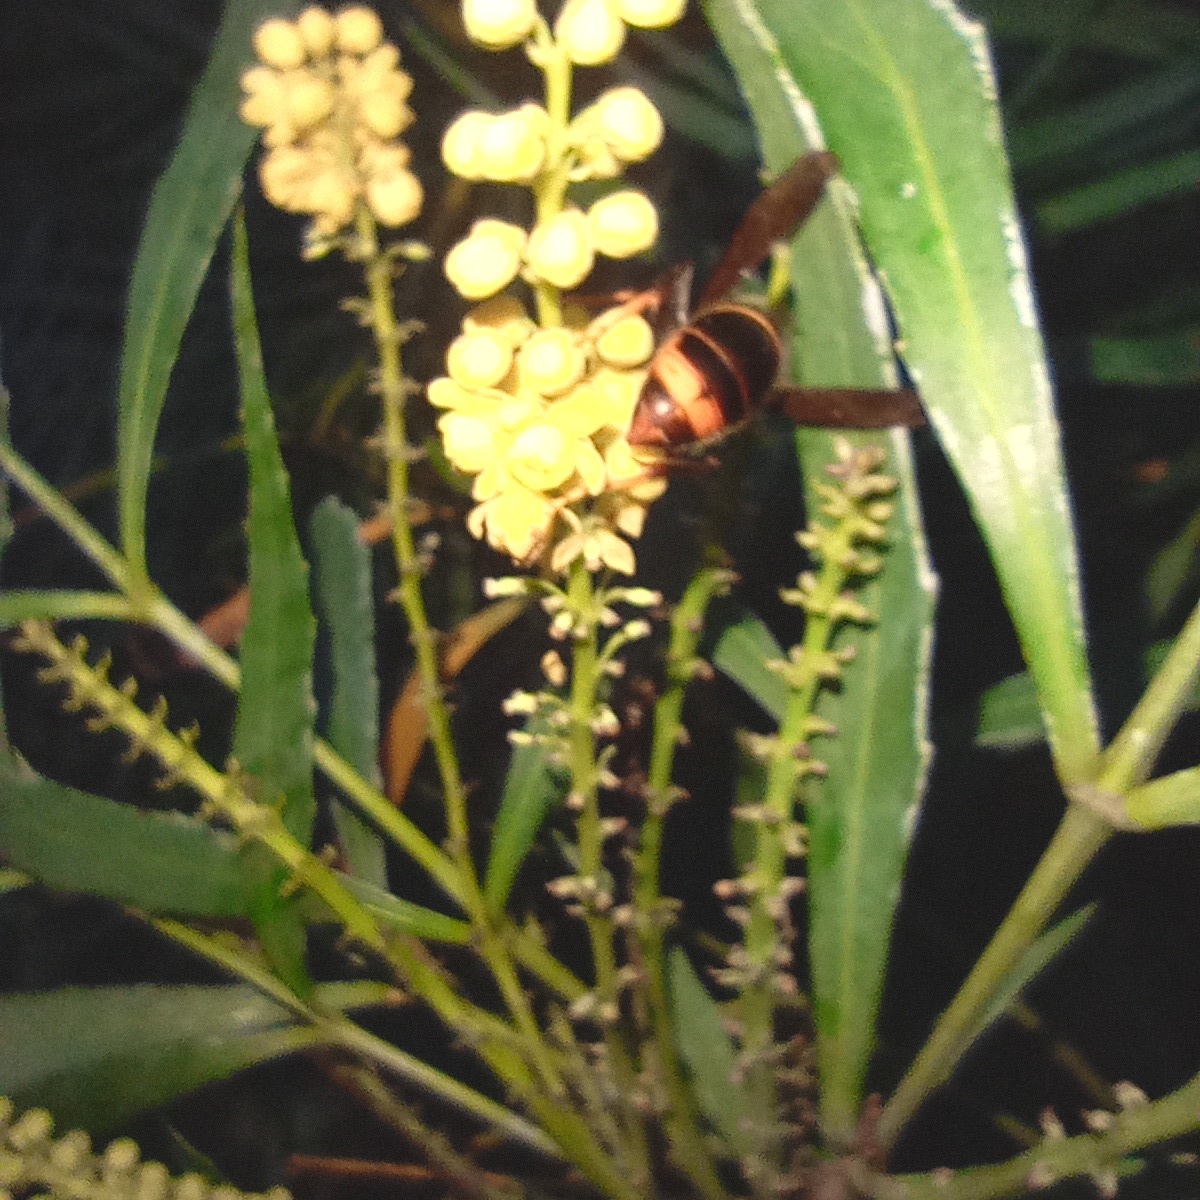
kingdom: Animalia
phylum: Arthropoda
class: Insecta
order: Hymenoptera
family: Vespidae
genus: Vespa
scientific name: Vespa velutina
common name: Asian hornet
